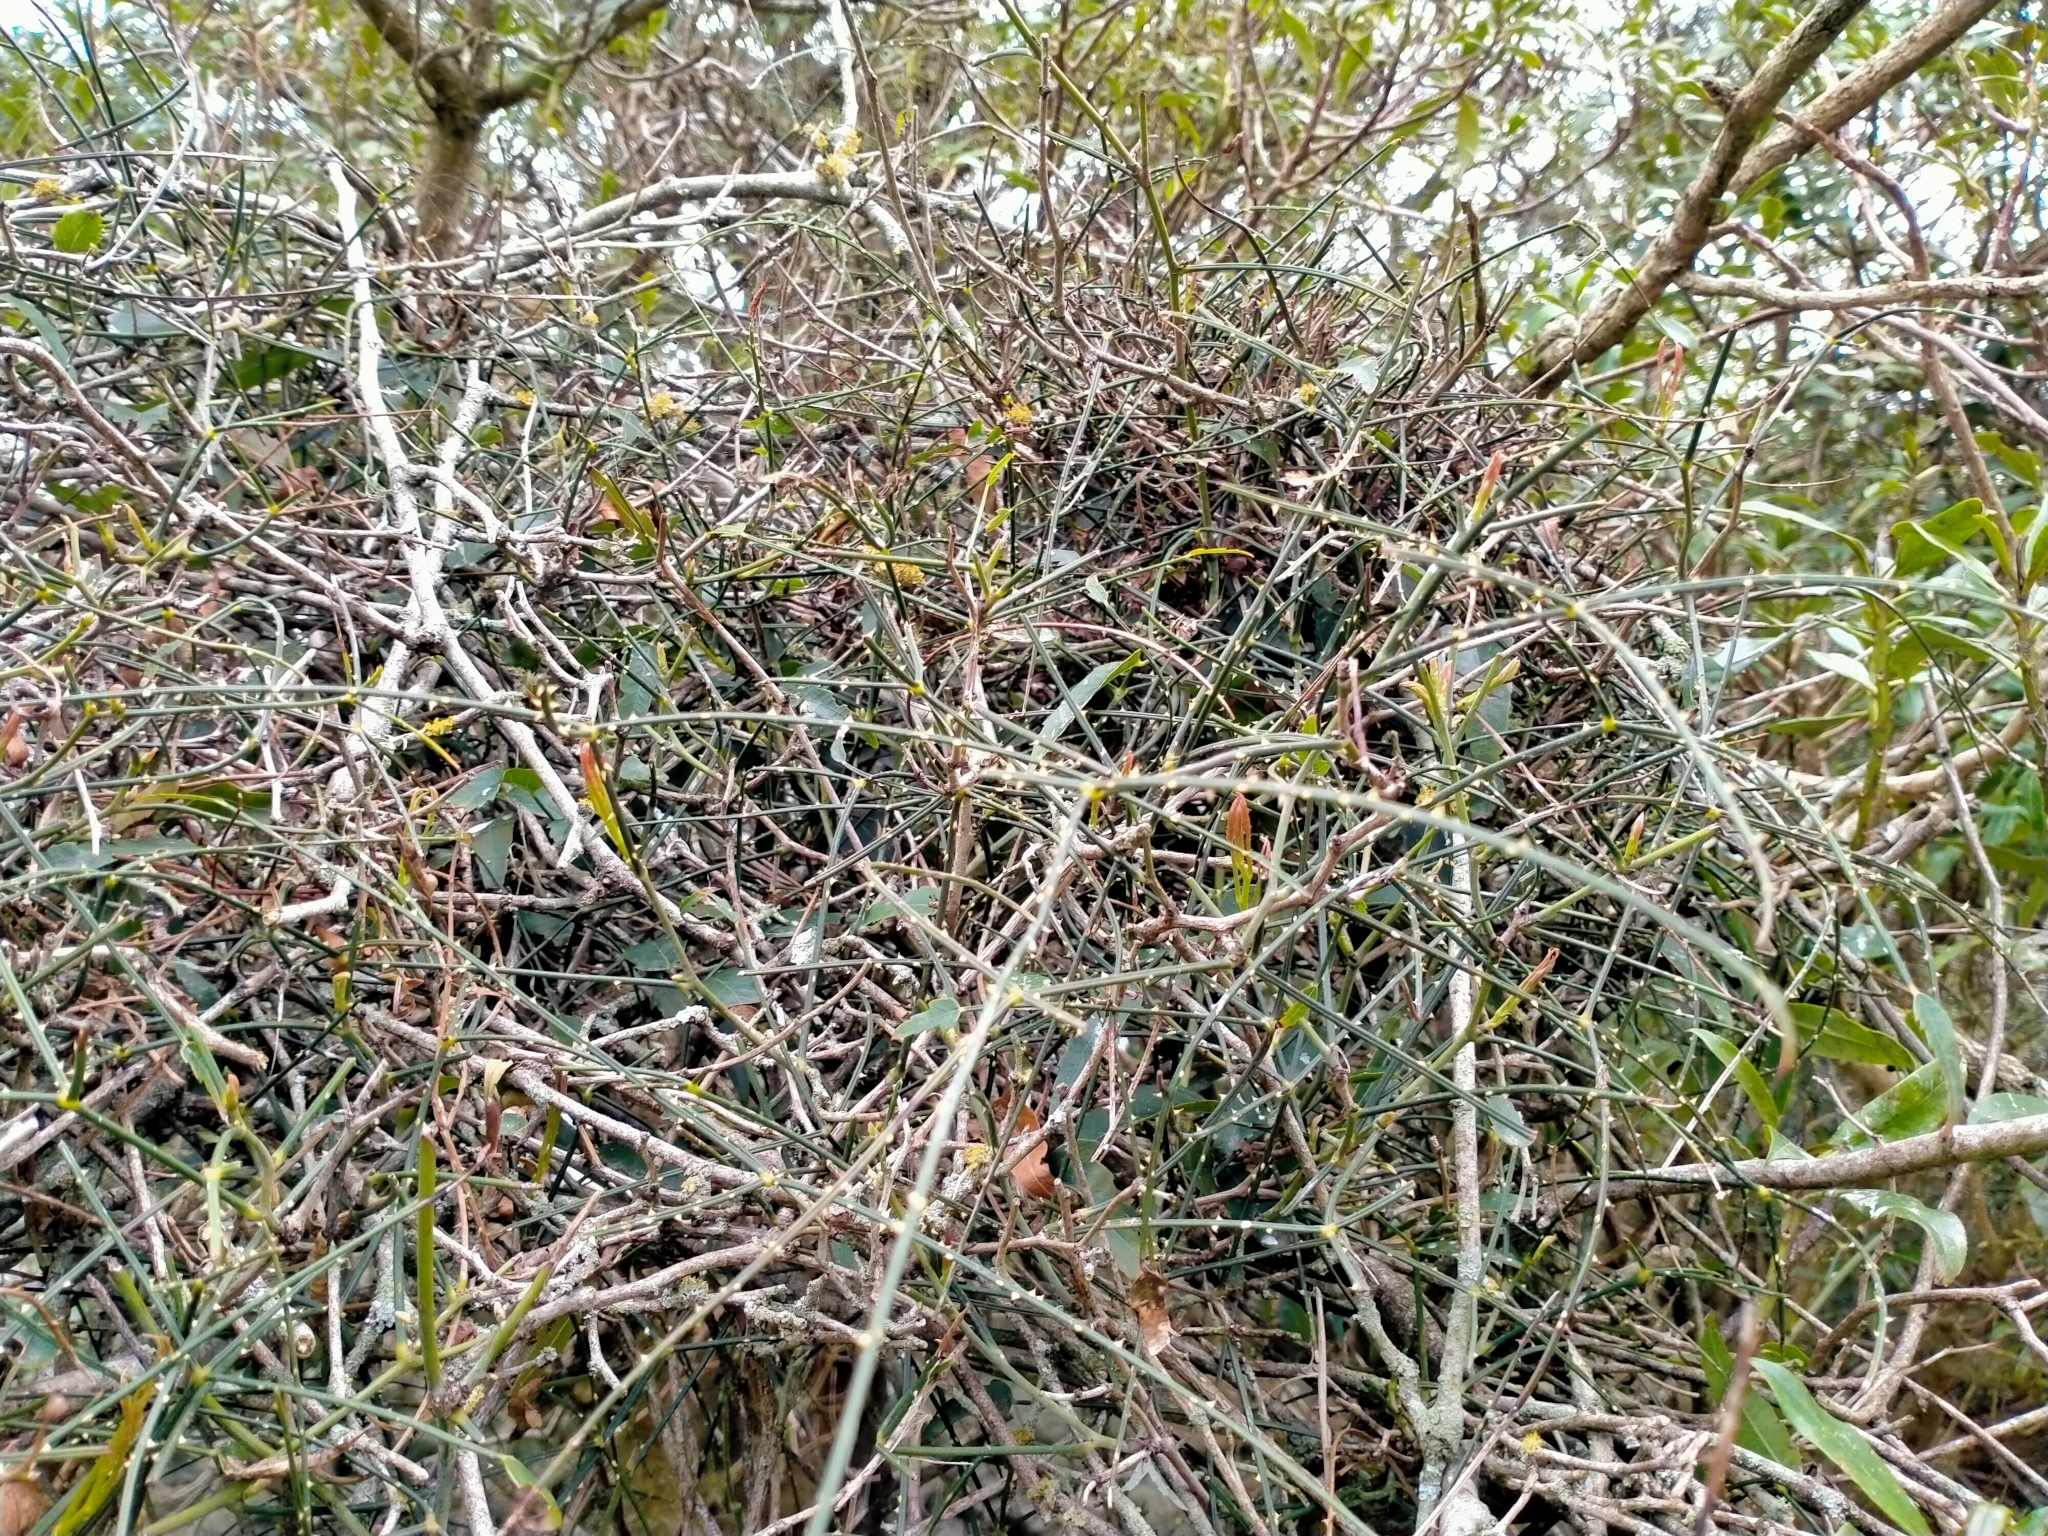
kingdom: Plantae
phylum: Tracheophyta
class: Magnoliopsida
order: Rosales
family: Rosaceae
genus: Rubus
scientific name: Rubus squarrosus
